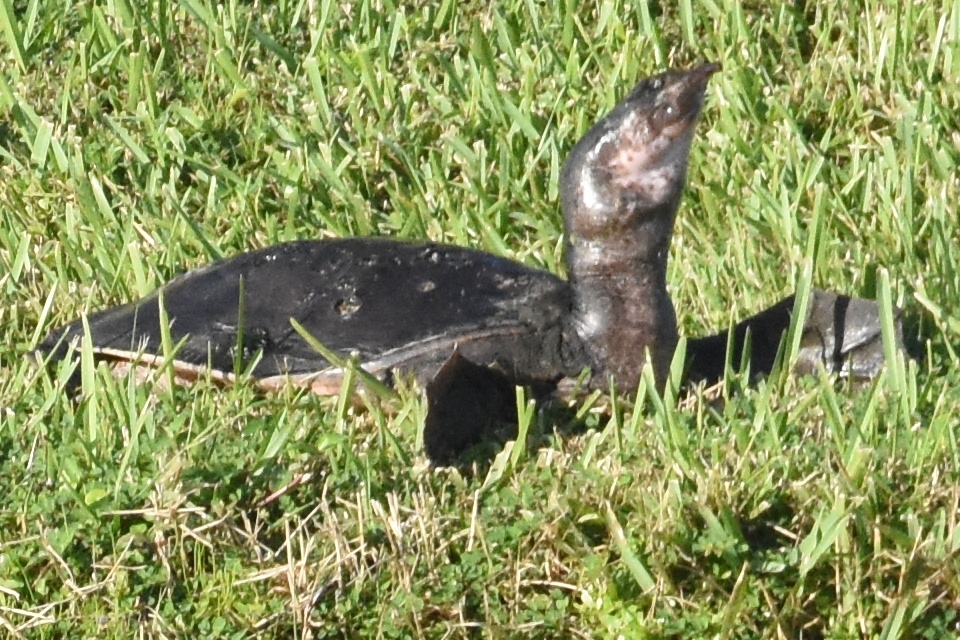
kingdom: Animalia
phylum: Chordata
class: Testudines
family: Trionychidae
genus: Apalone
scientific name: Apalone ferox
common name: Florida softshell turtle
